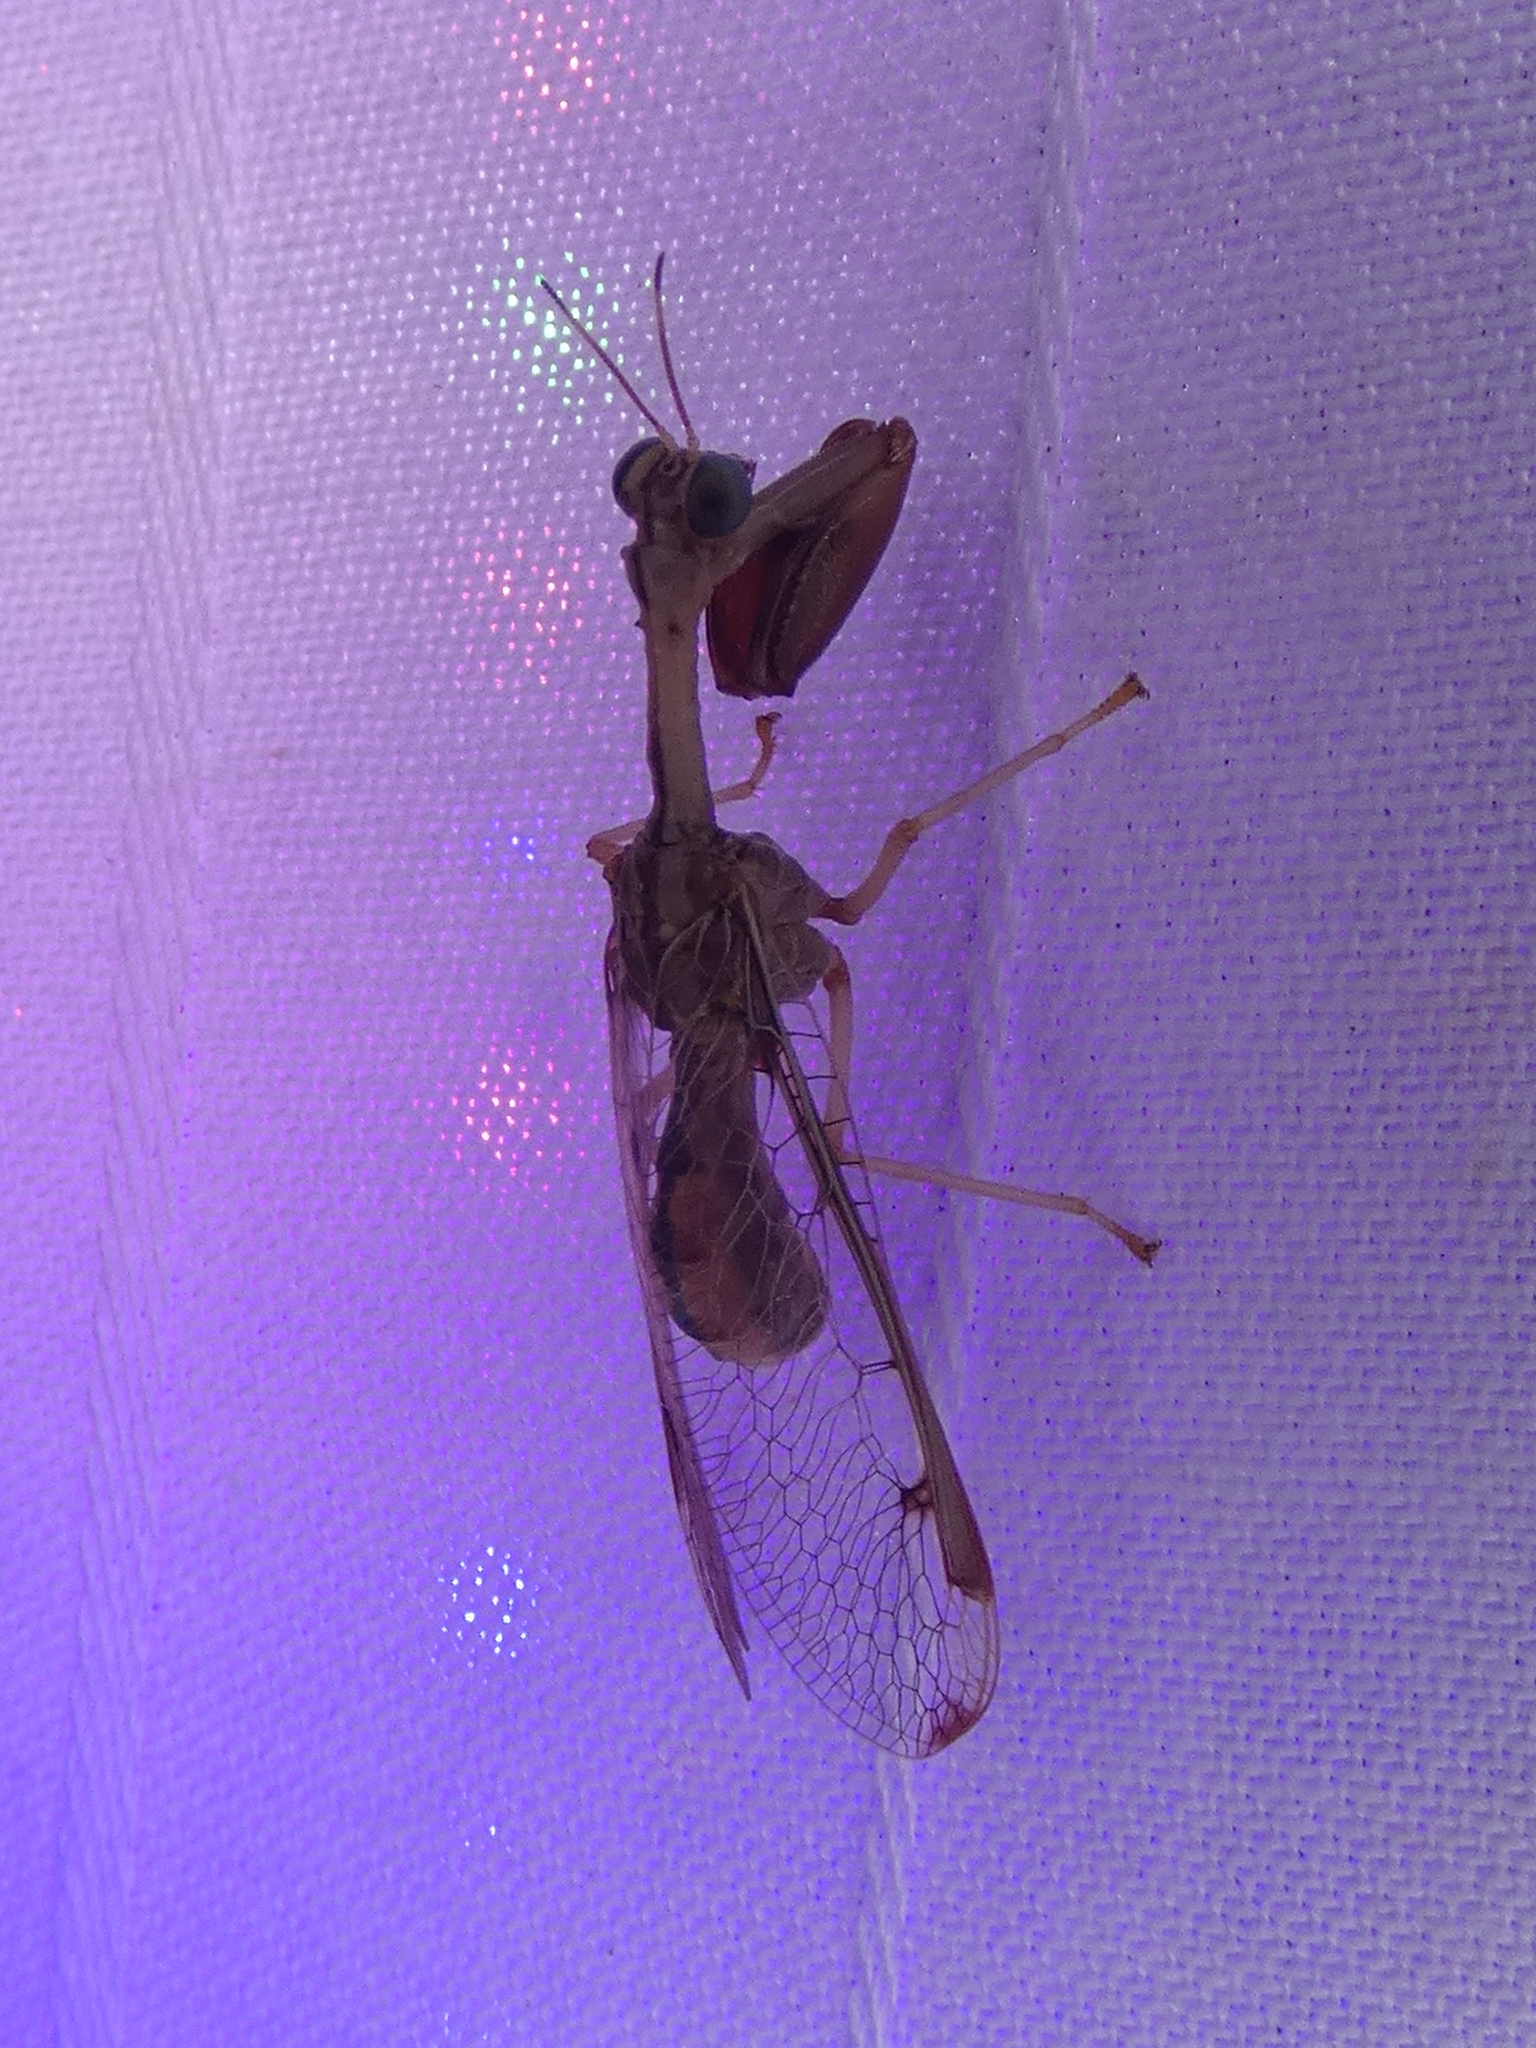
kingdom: Animalia
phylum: Arthropoda
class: Insecta
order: Neuroptera
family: Mantispidae
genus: Dicromantispa
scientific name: Dicromantispa interrupta
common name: Four-spotted mantidfly
